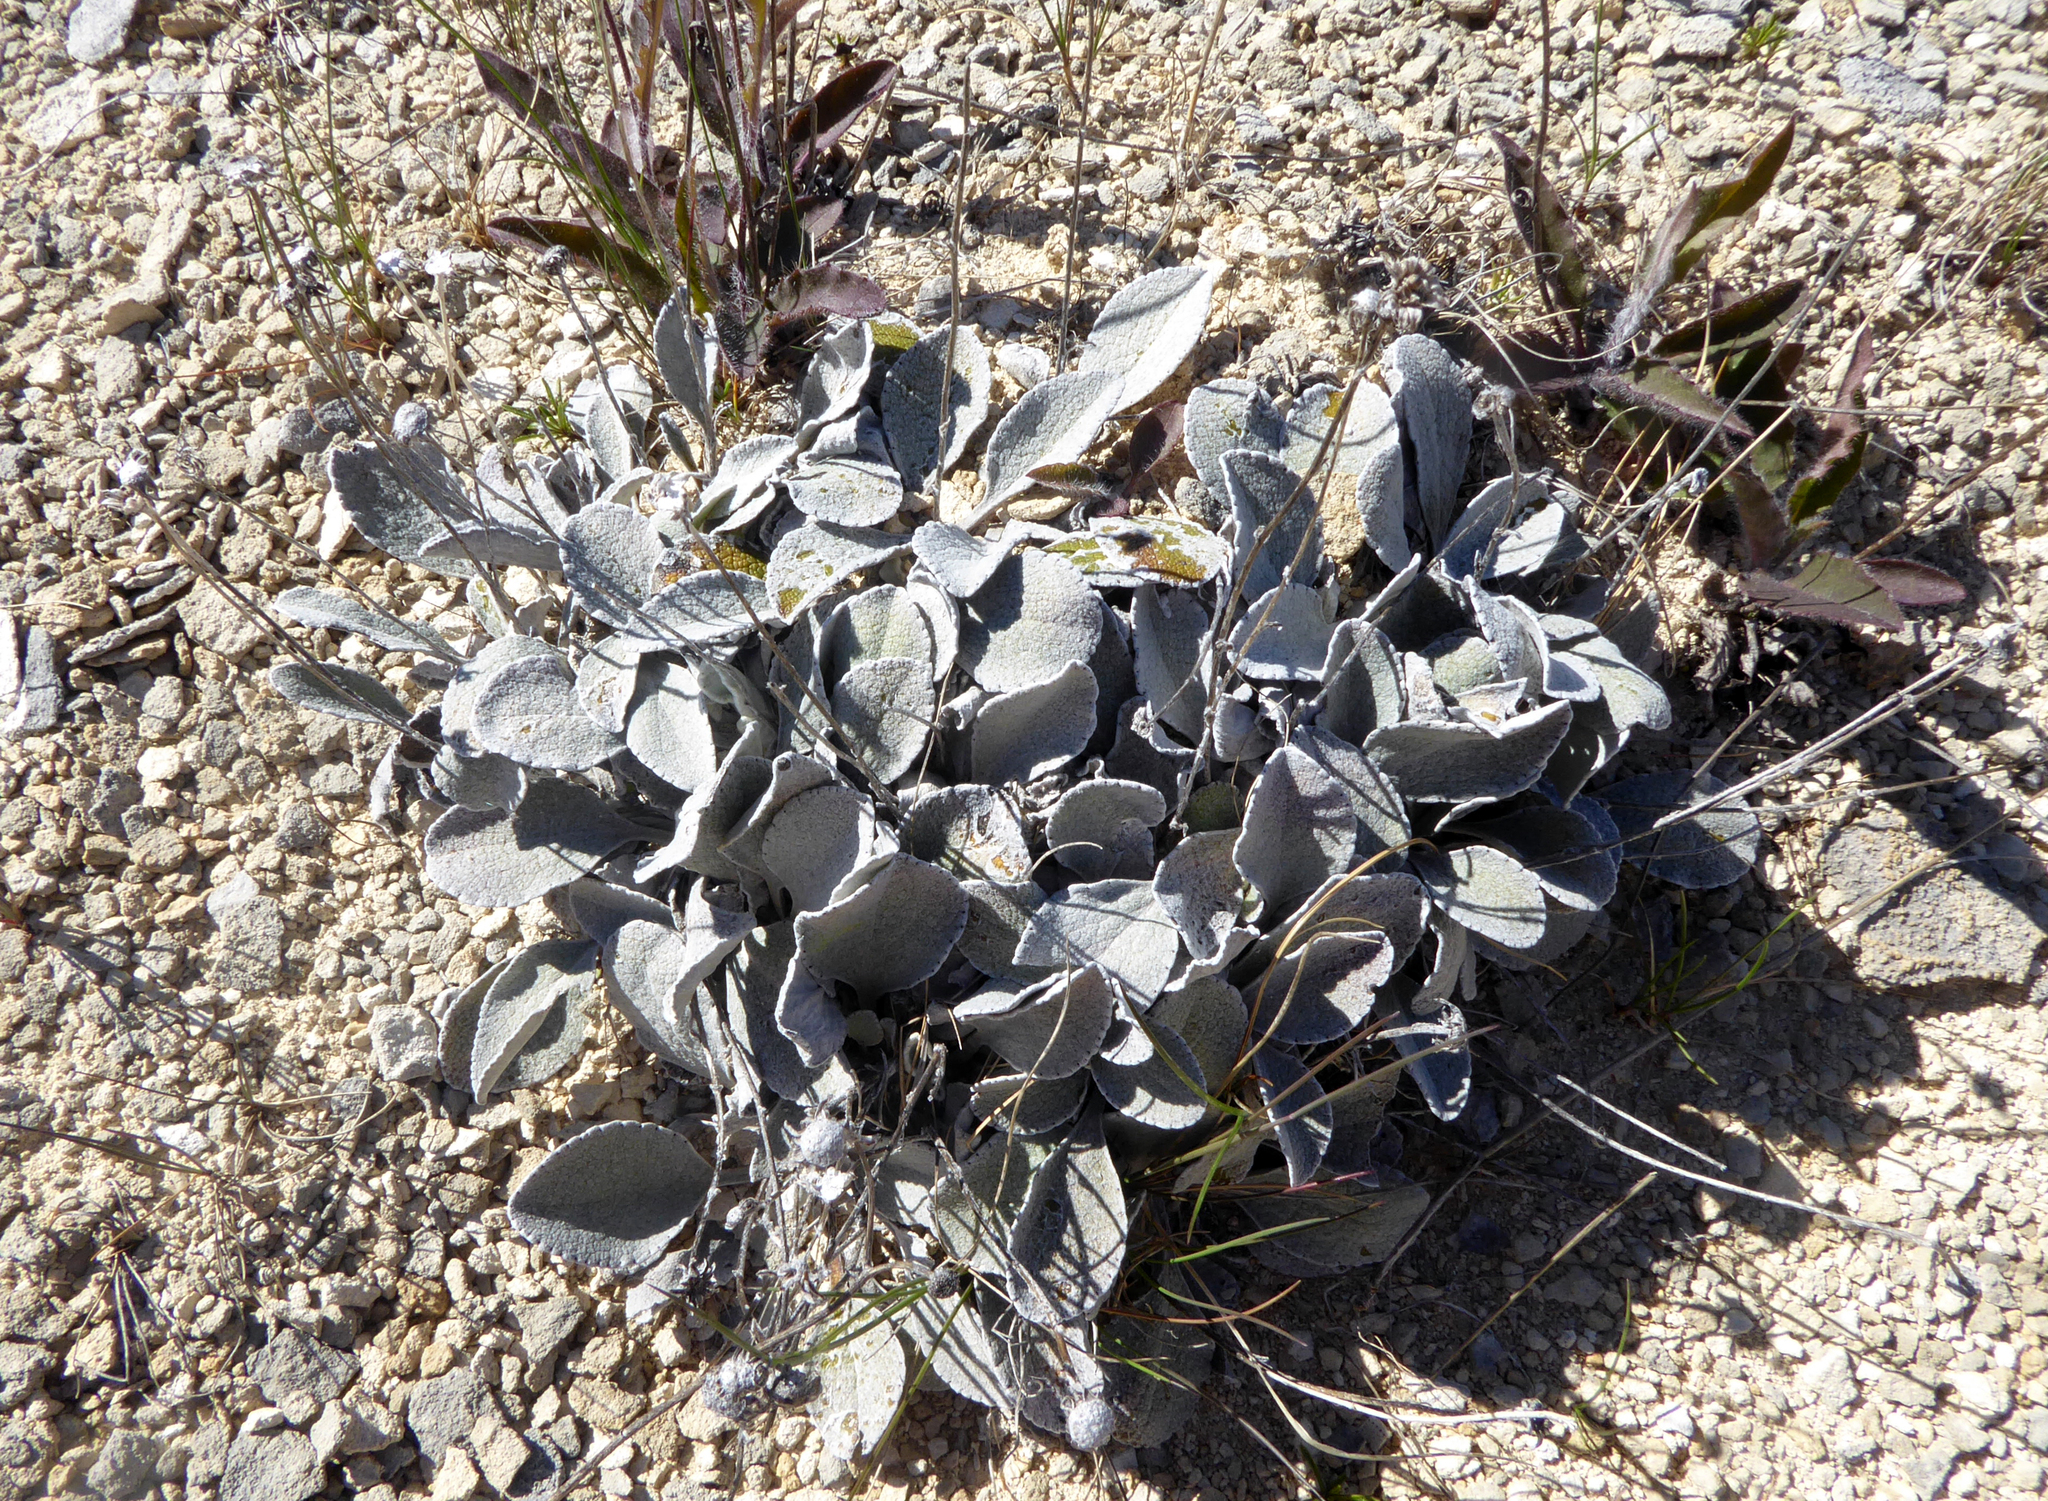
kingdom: Plantae
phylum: Tracheophyta
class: Magnoliopsida
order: Asterales
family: Asteraceae
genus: Brachyglottis
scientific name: Brachyglottis haastii
